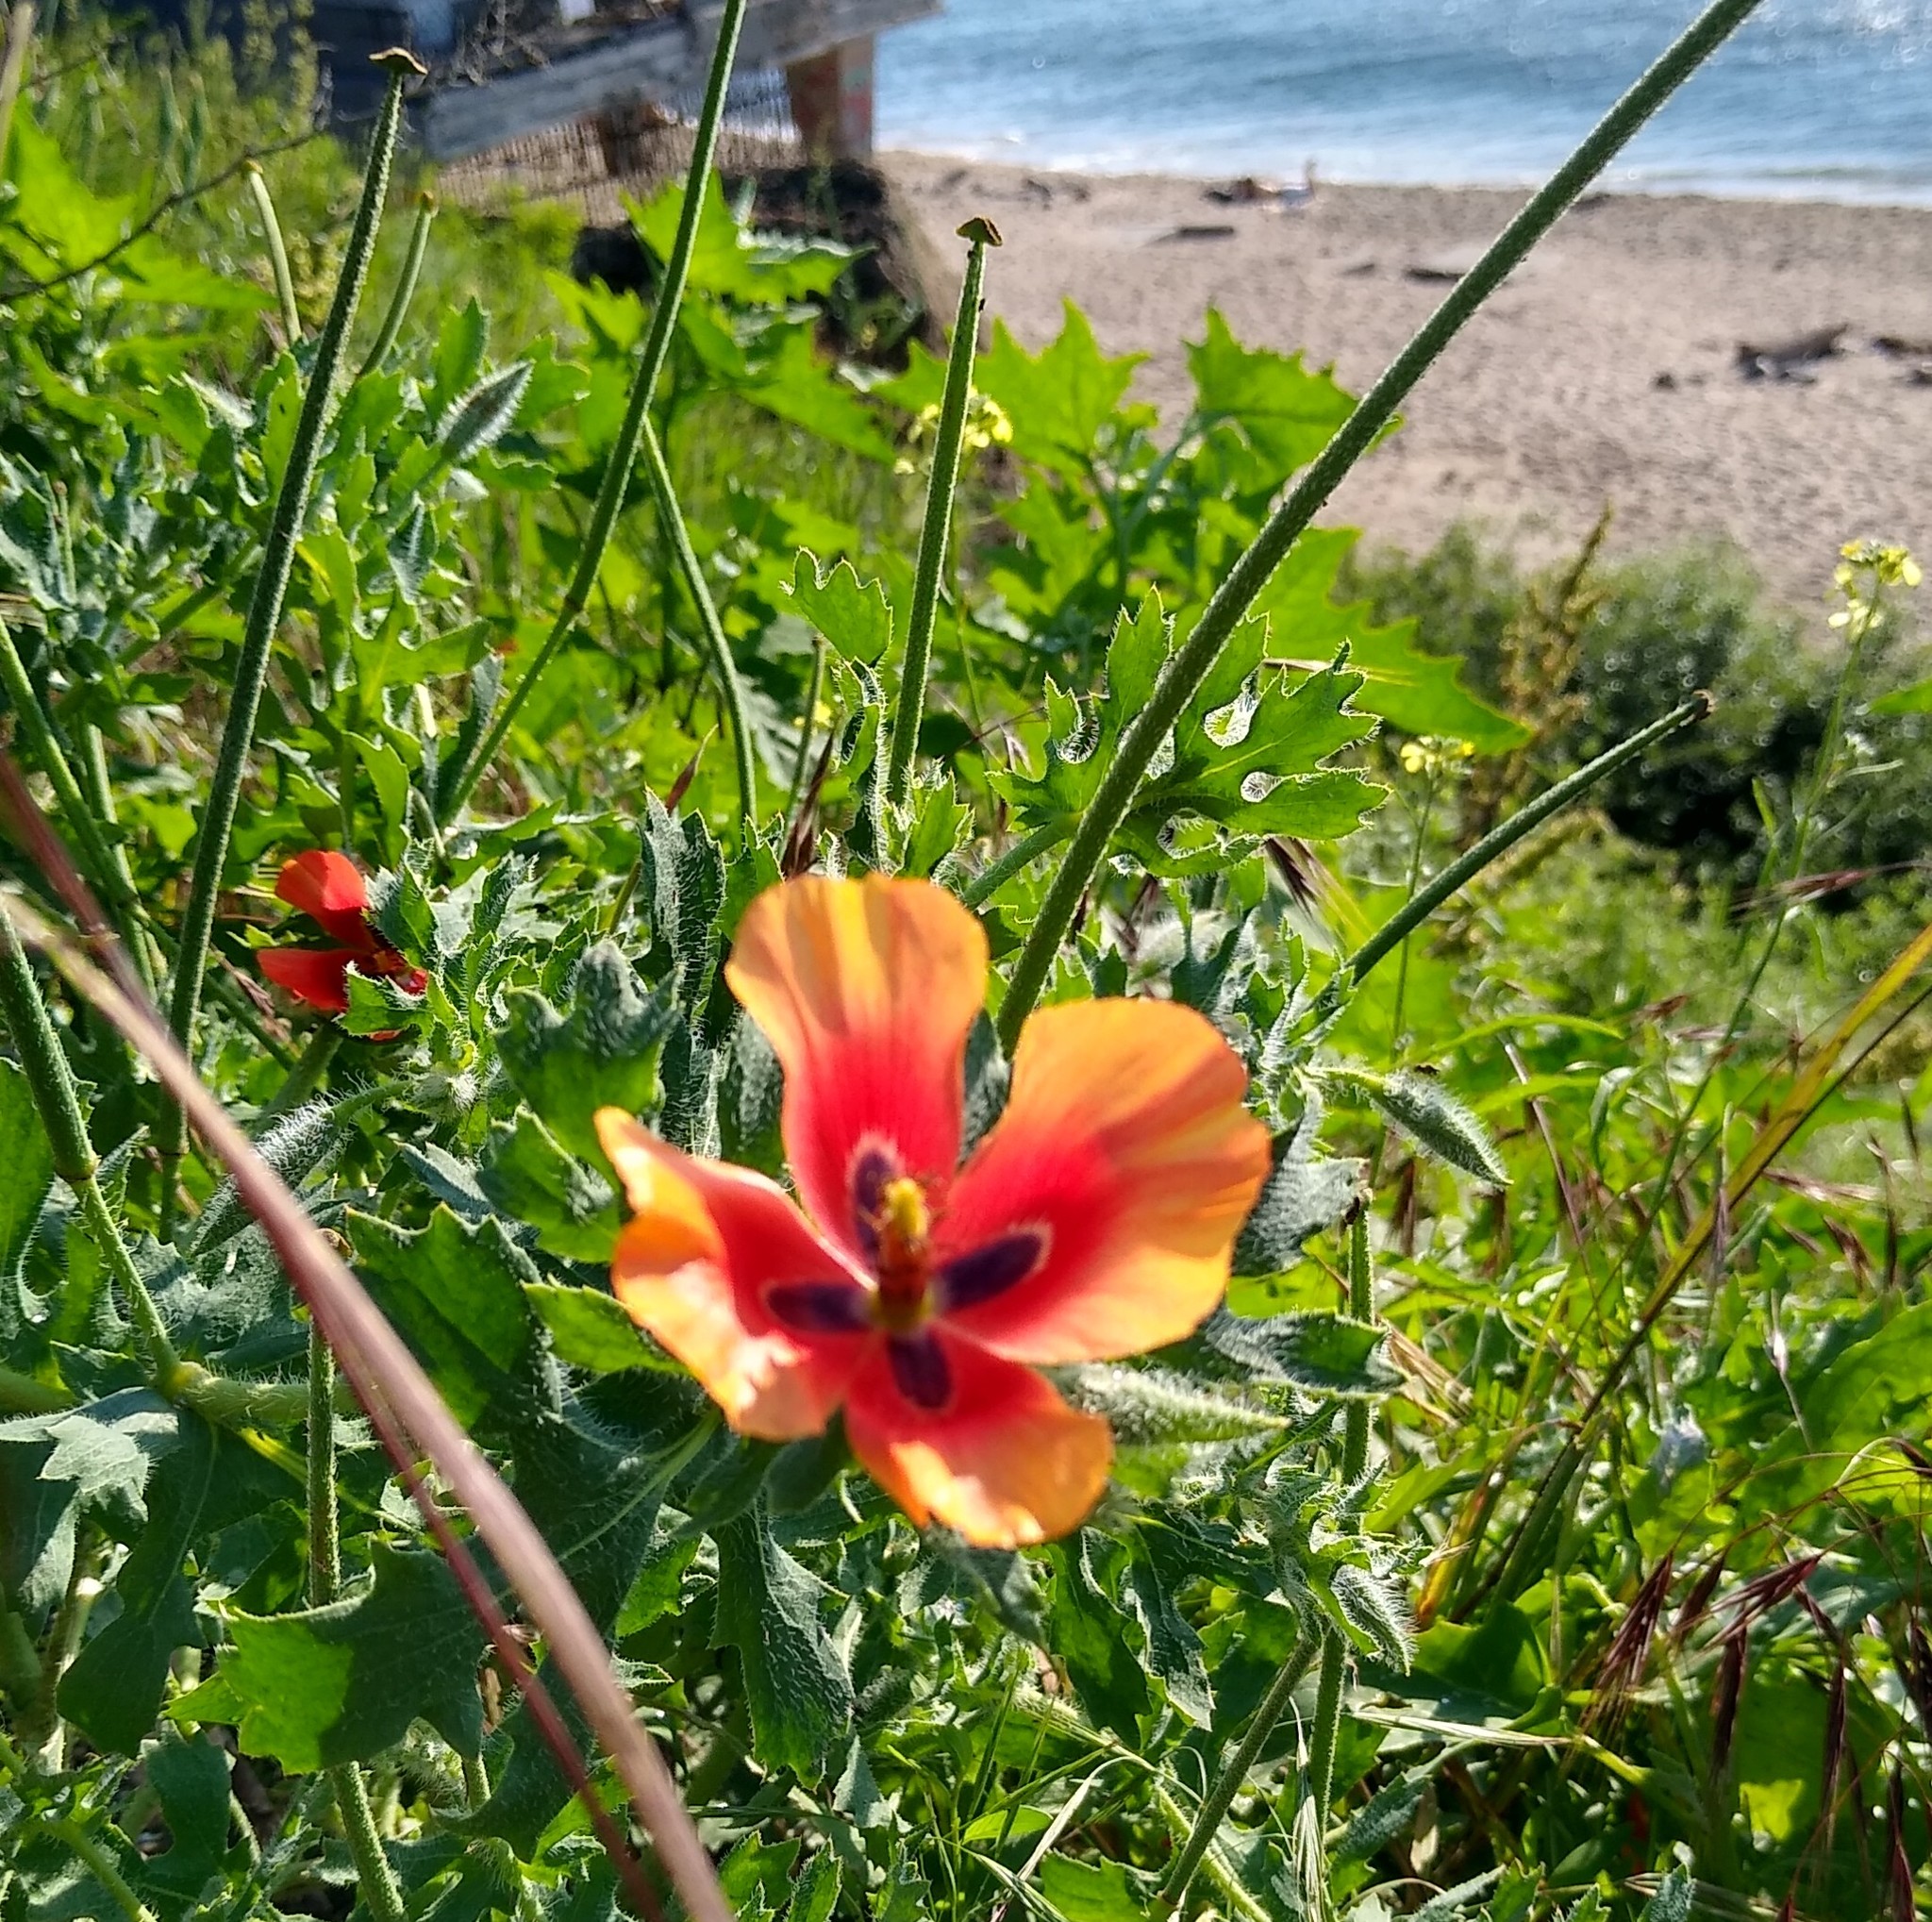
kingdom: Plantae
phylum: Tracheophyta
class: Magnoliopsida
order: Ranunculales
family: Papaveraceae
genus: Glaucium
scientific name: Glaucium corniculatum
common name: Red horned-poppy
